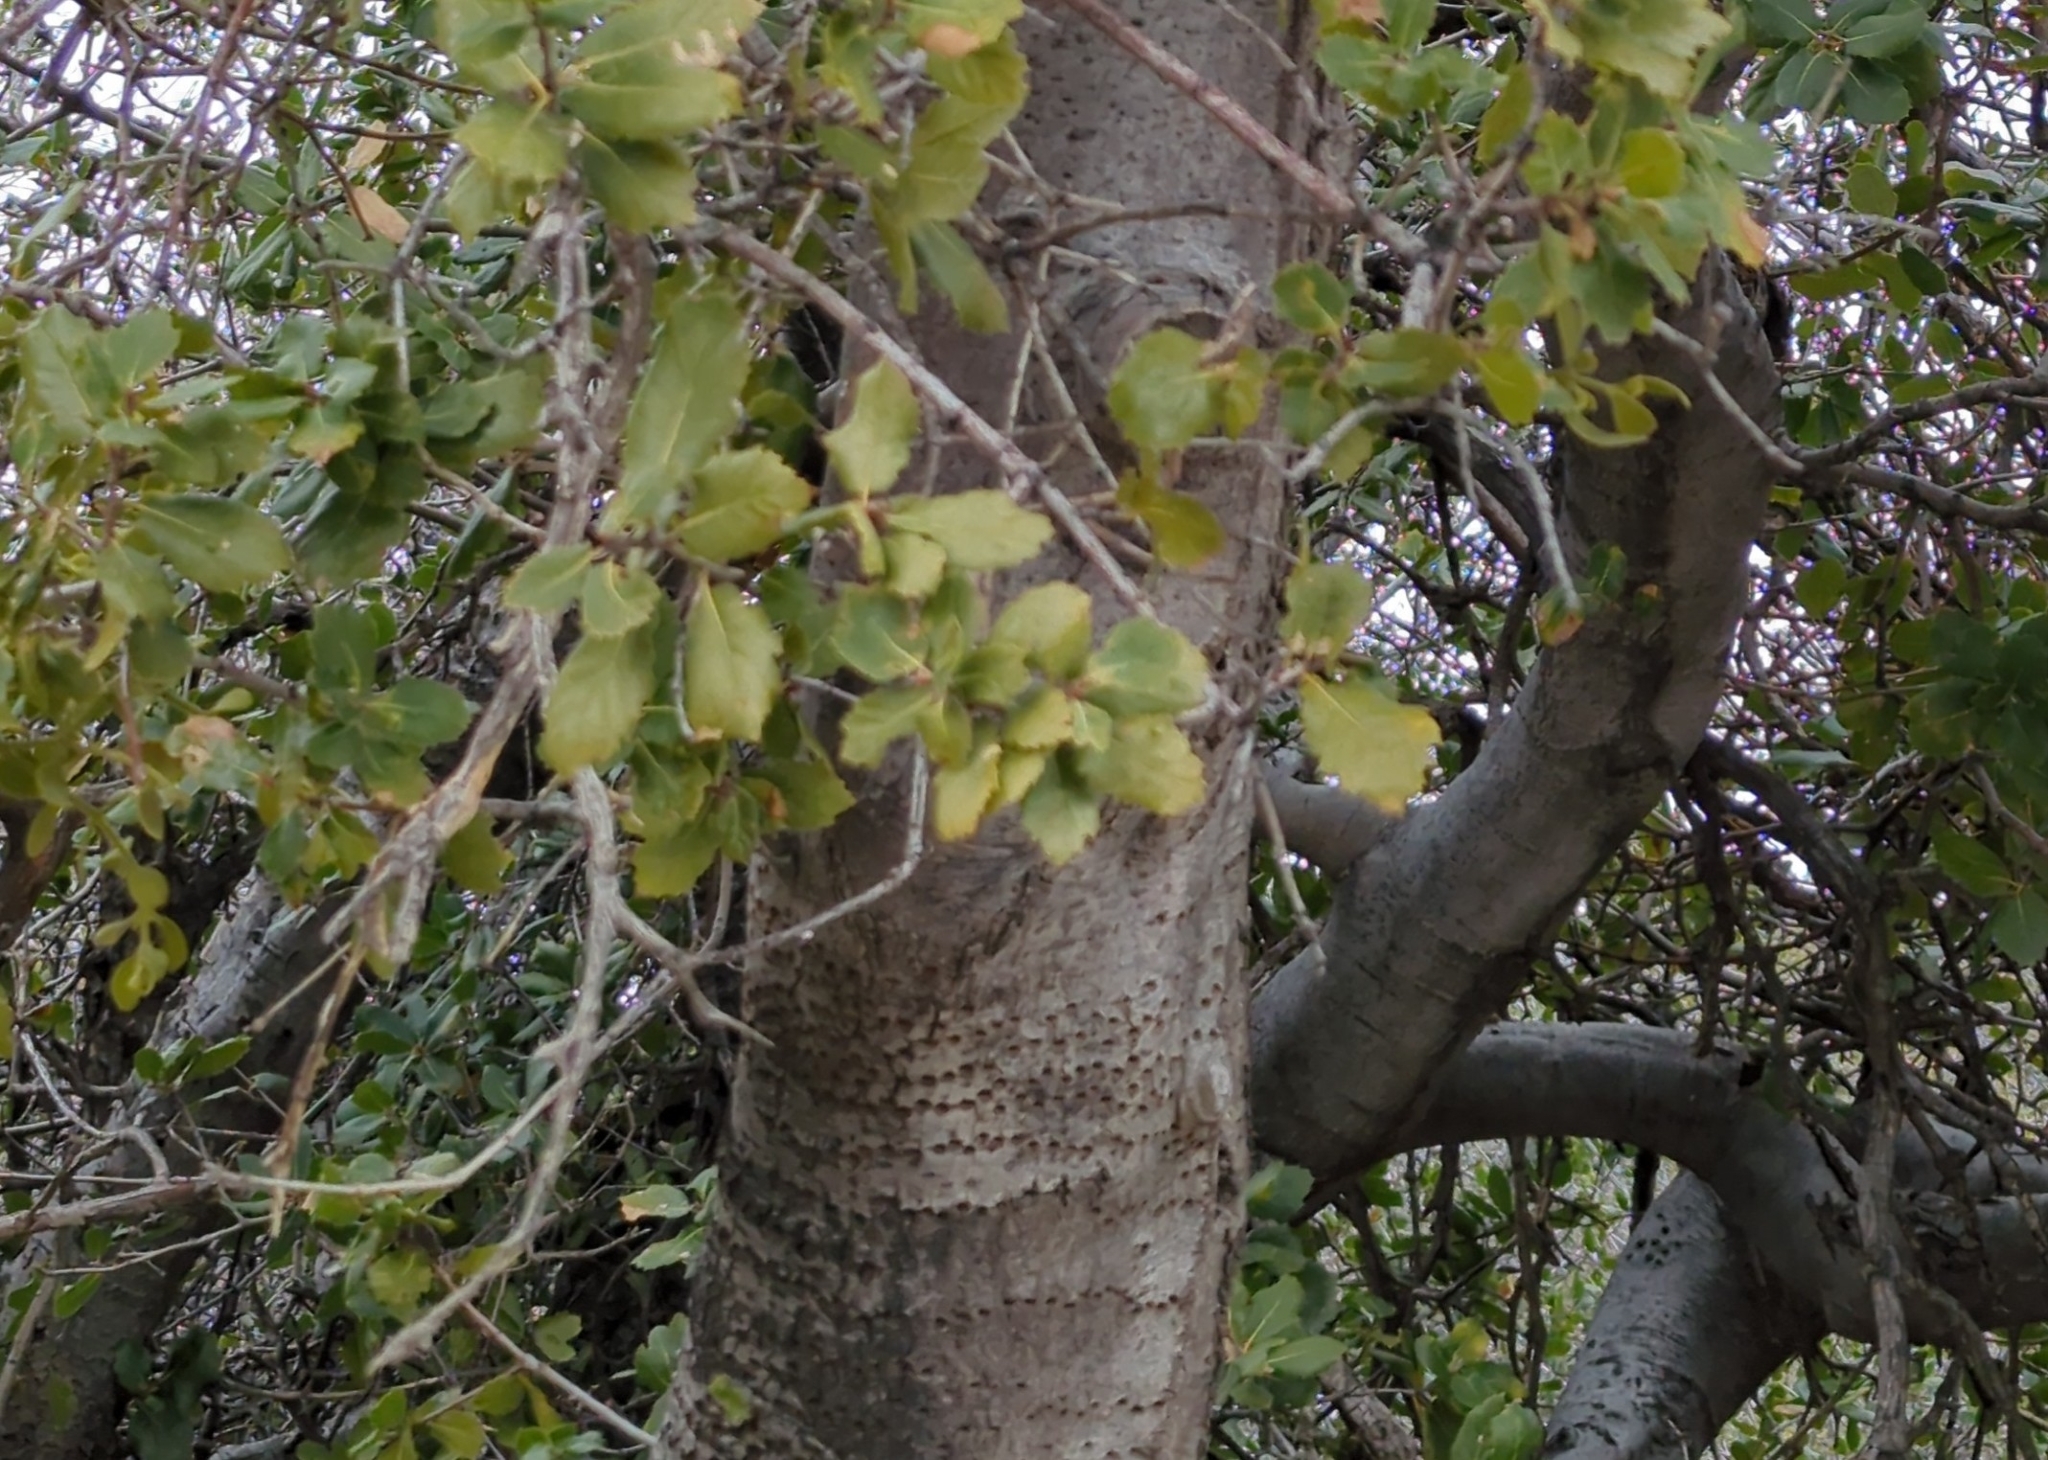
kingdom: Plantae
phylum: Tracheophyta
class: Magnoliopsida
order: Fagales
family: Fagaceae
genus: Quercus
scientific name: Quercus wislizeni
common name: Interior live oak
